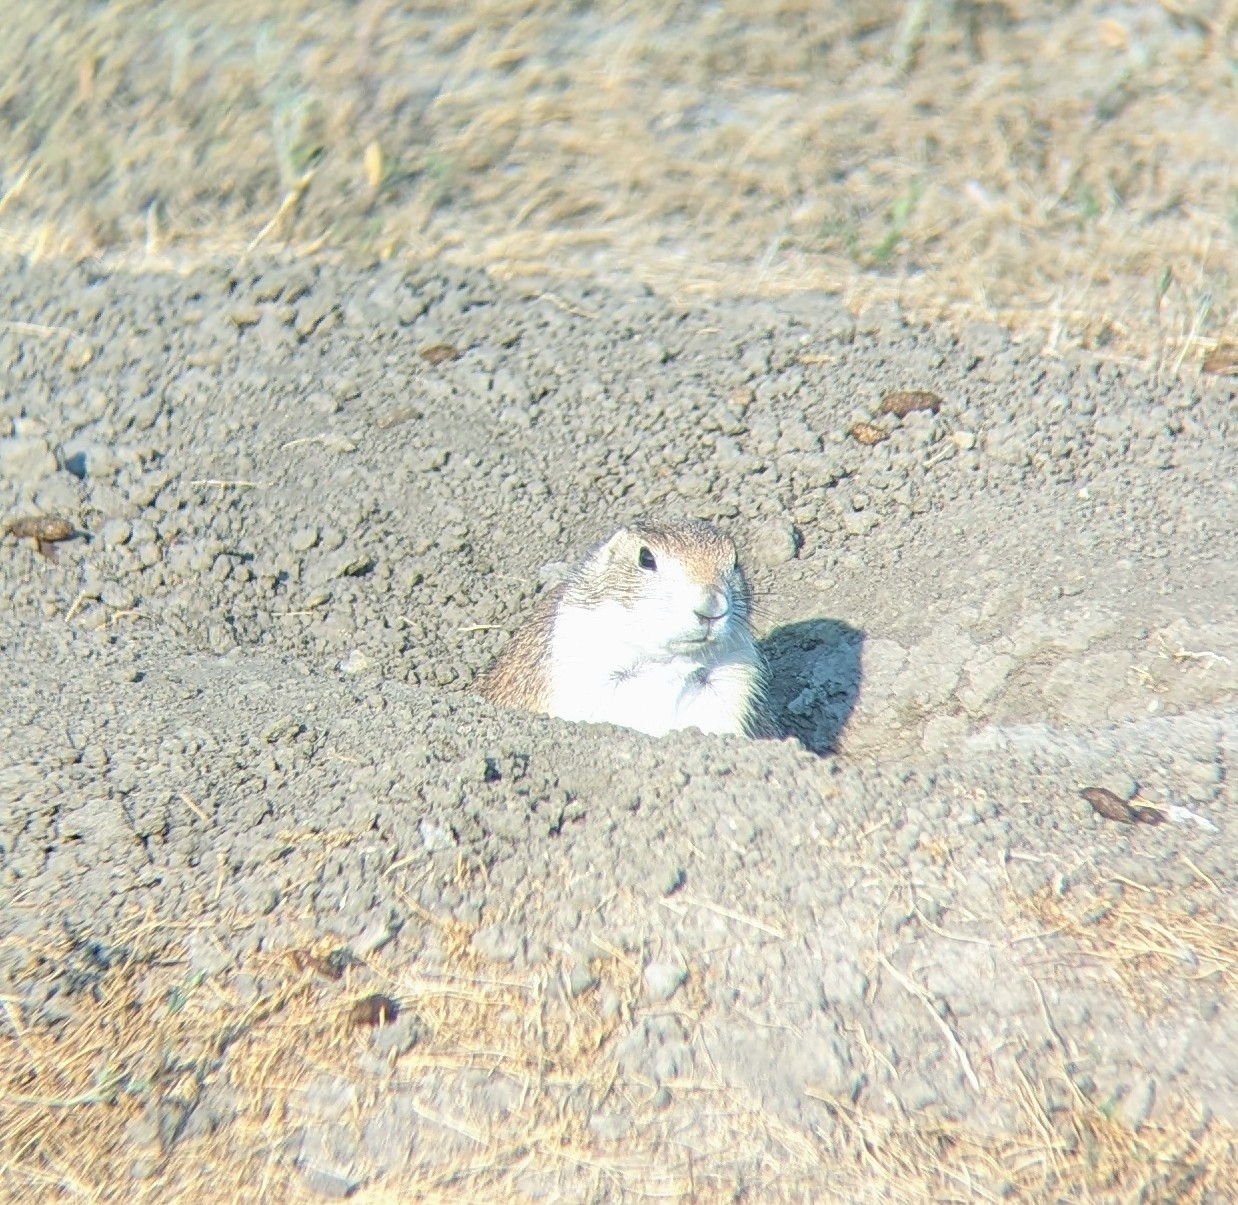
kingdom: Animalia
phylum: Chordata
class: Mammalia
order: Rodentia
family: Sciuridae
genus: Cynomys
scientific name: Cynomys ludovicianus
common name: Black-tailed prairie dog
